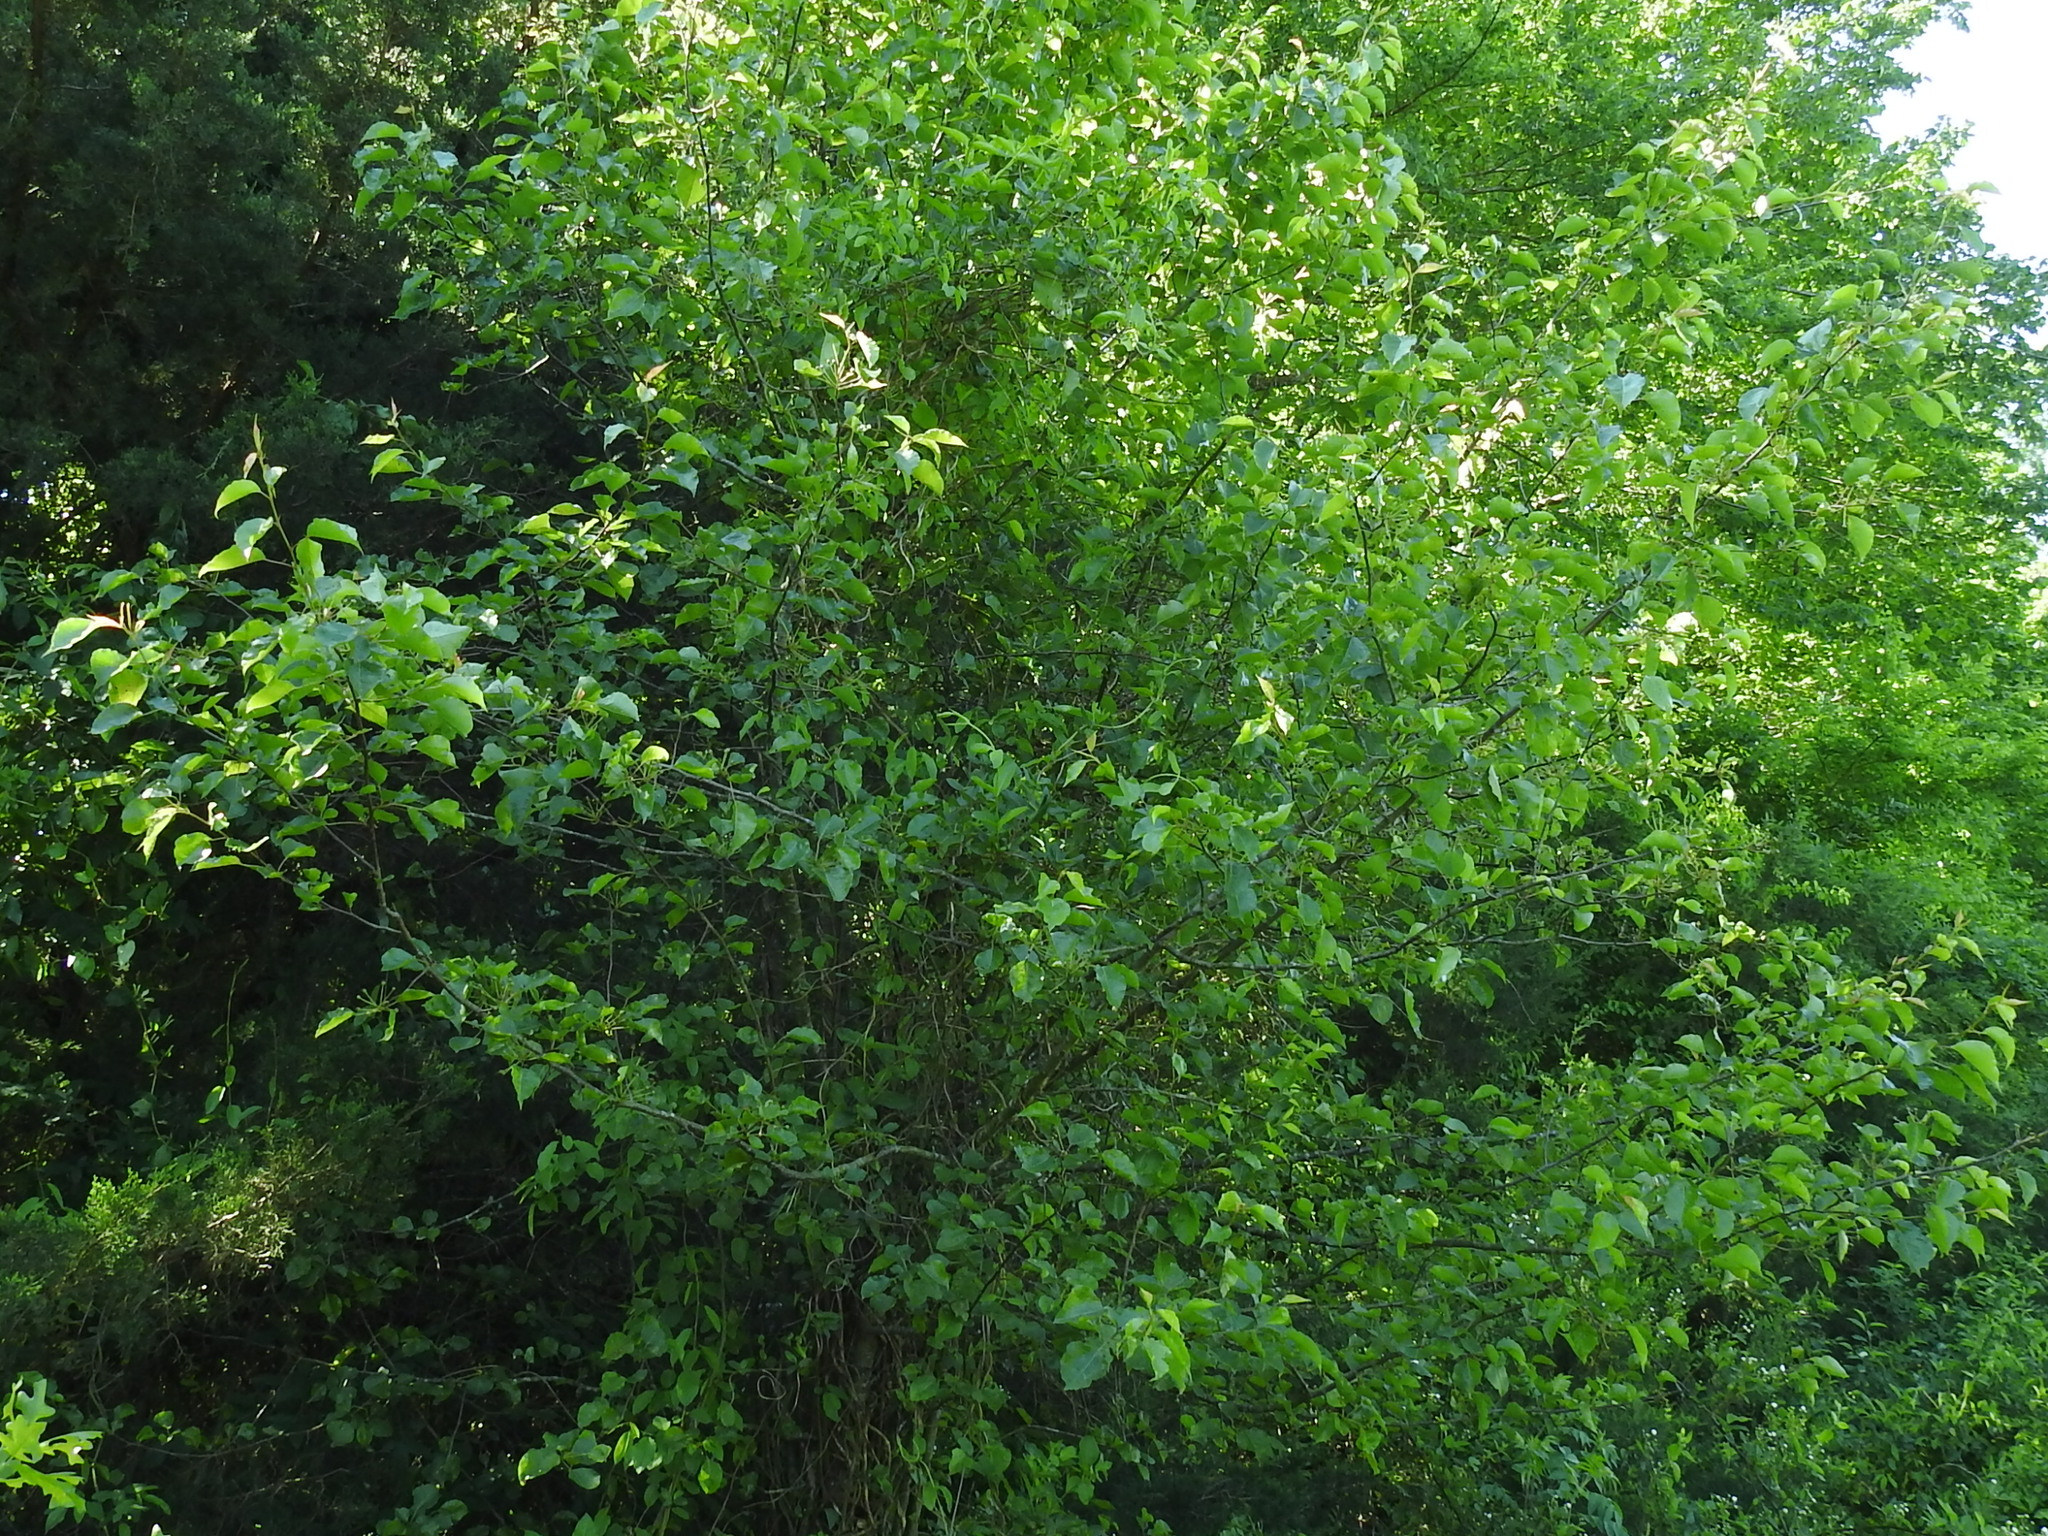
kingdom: Plantae
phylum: Tracheophyta
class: Magnoliopsida
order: Rosales
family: Rosaceae
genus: Pyrus
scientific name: Pyrus calleryana
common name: Callery pear
